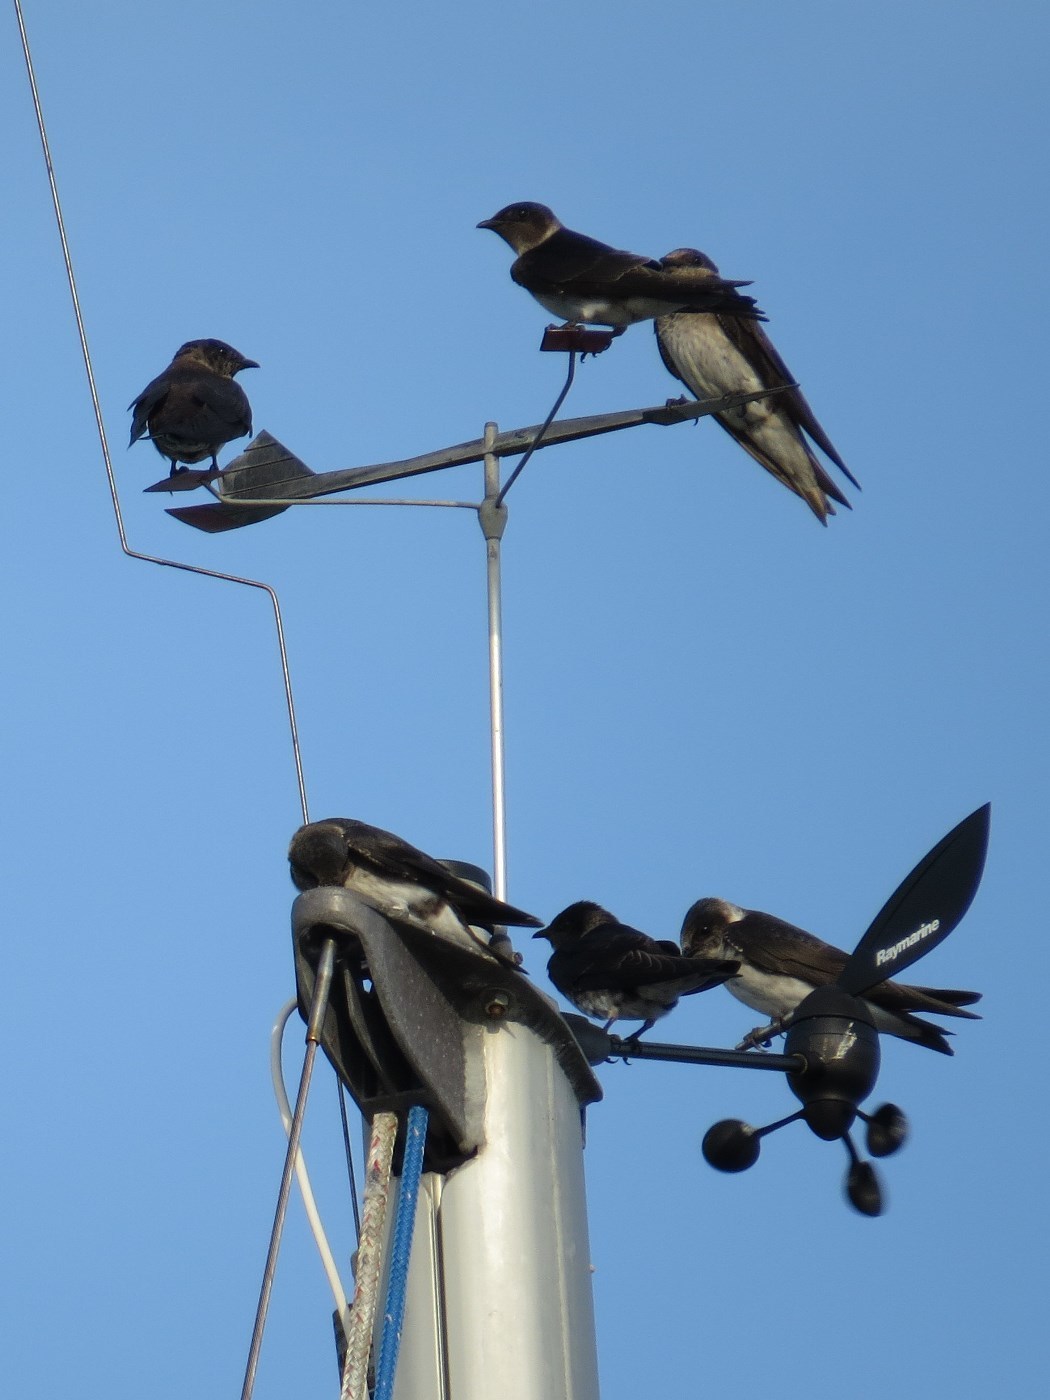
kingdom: Animalia
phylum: Chordata
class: Aves
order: Passeriformes
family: Hirundinidae
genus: Progne
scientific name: Progne subis
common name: Purple martin
